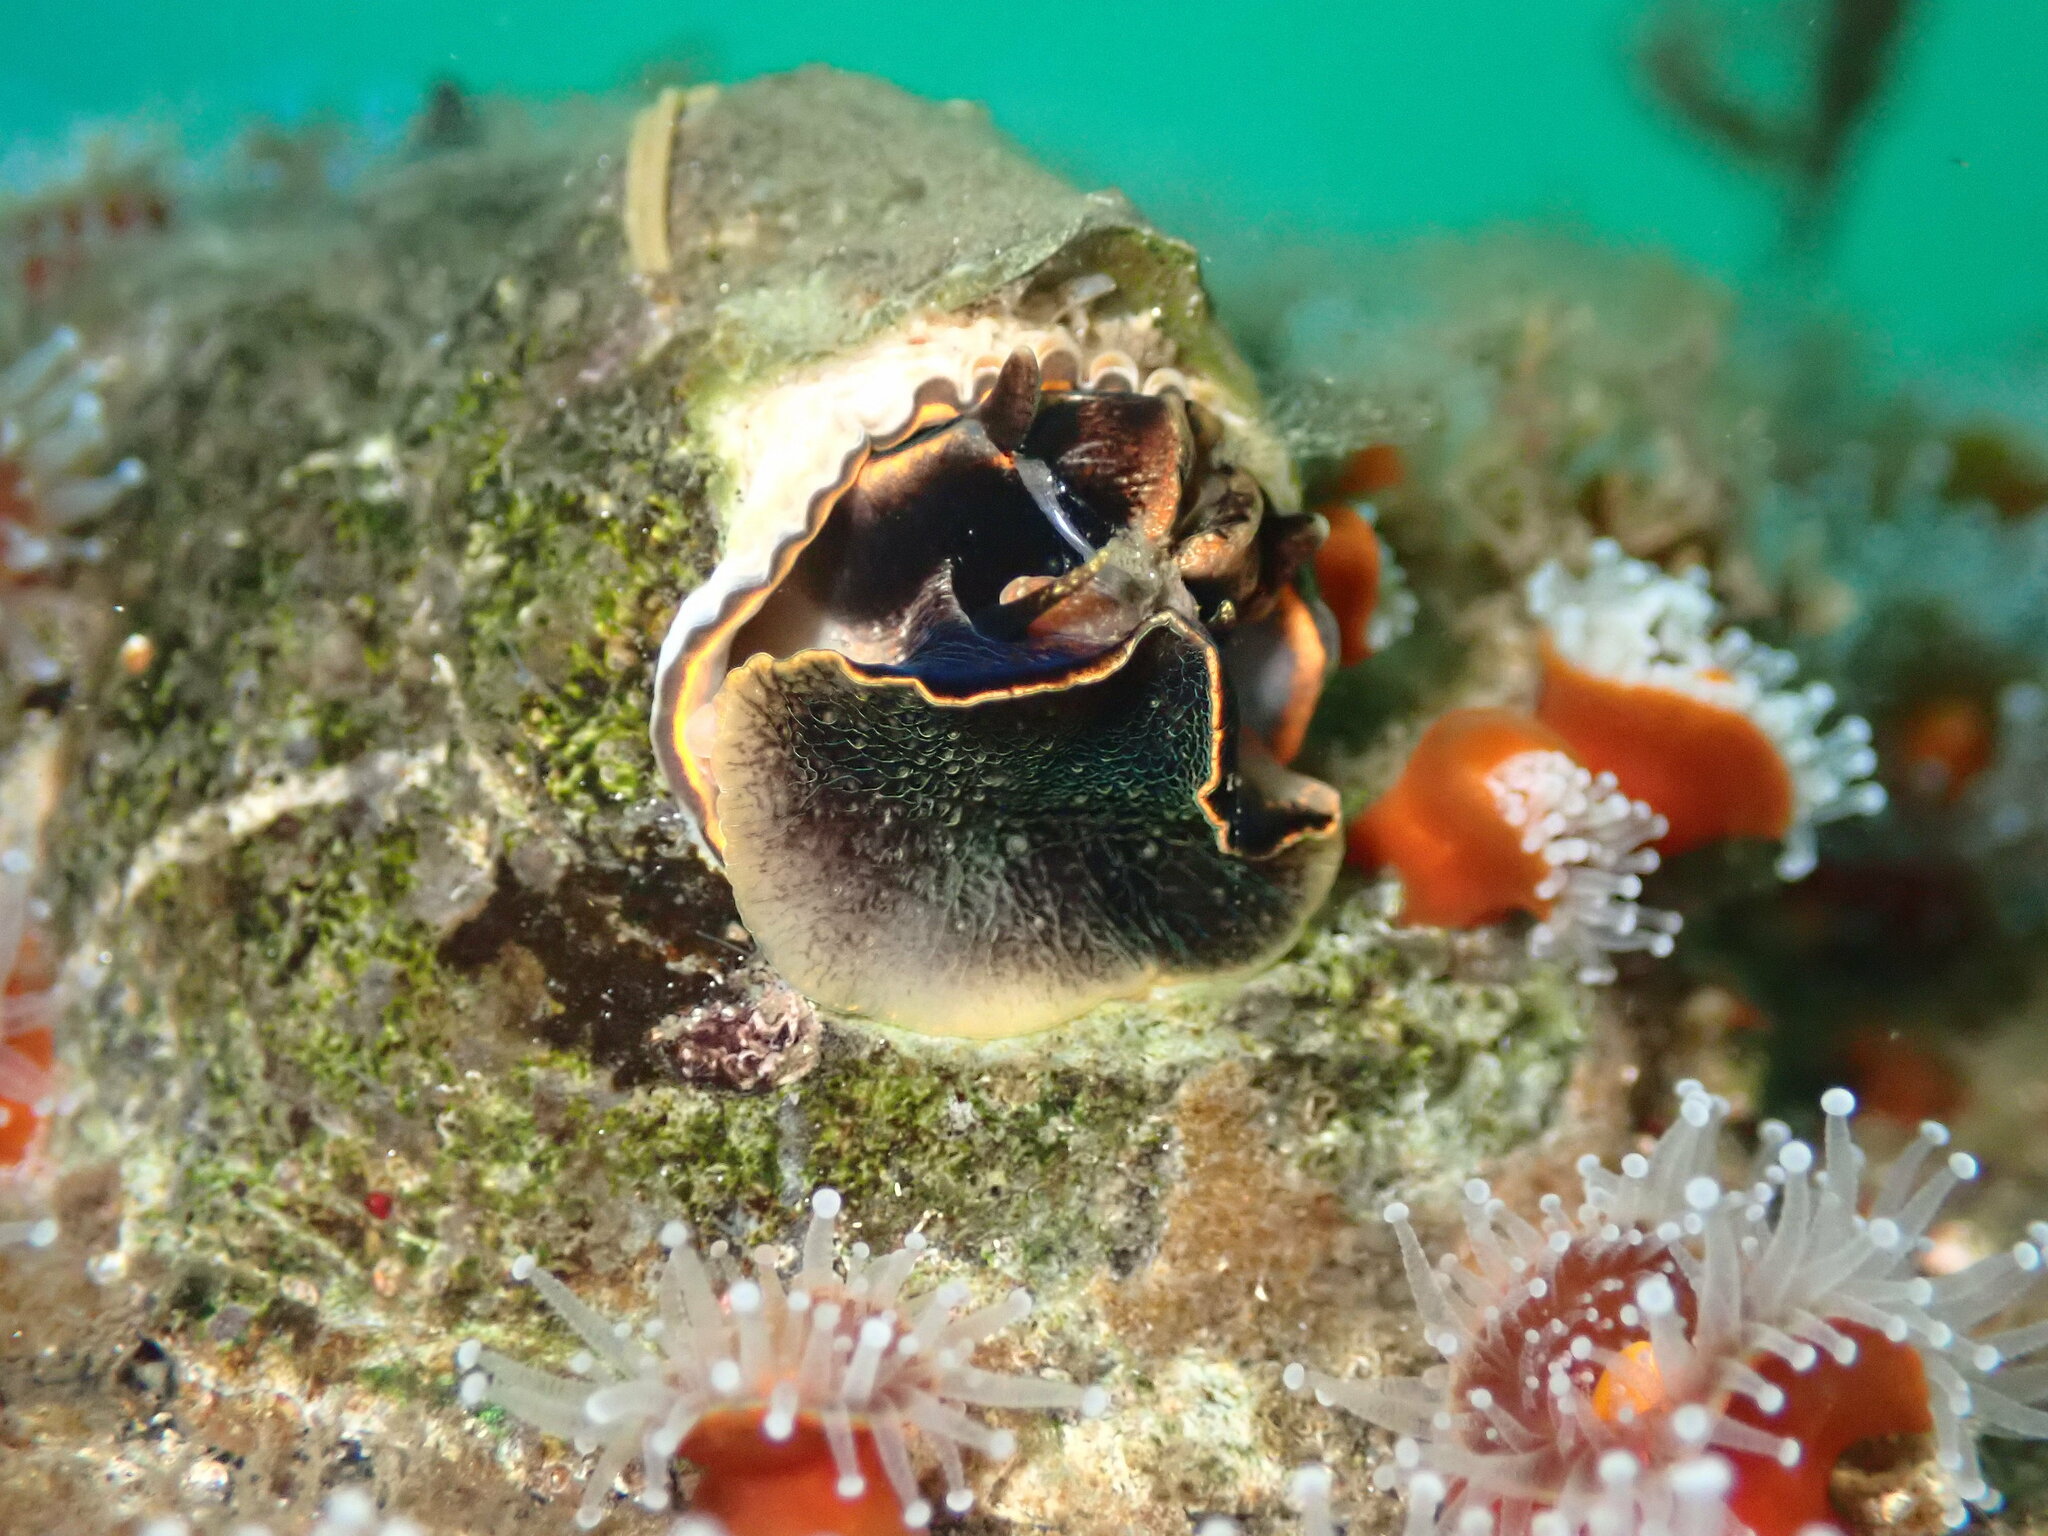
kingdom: Animalia
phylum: Mollusca
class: Gastropoda
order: Littorinimorpha
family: Vermetidae
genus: Thylacodes
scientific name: Thylacodes squamigerus
